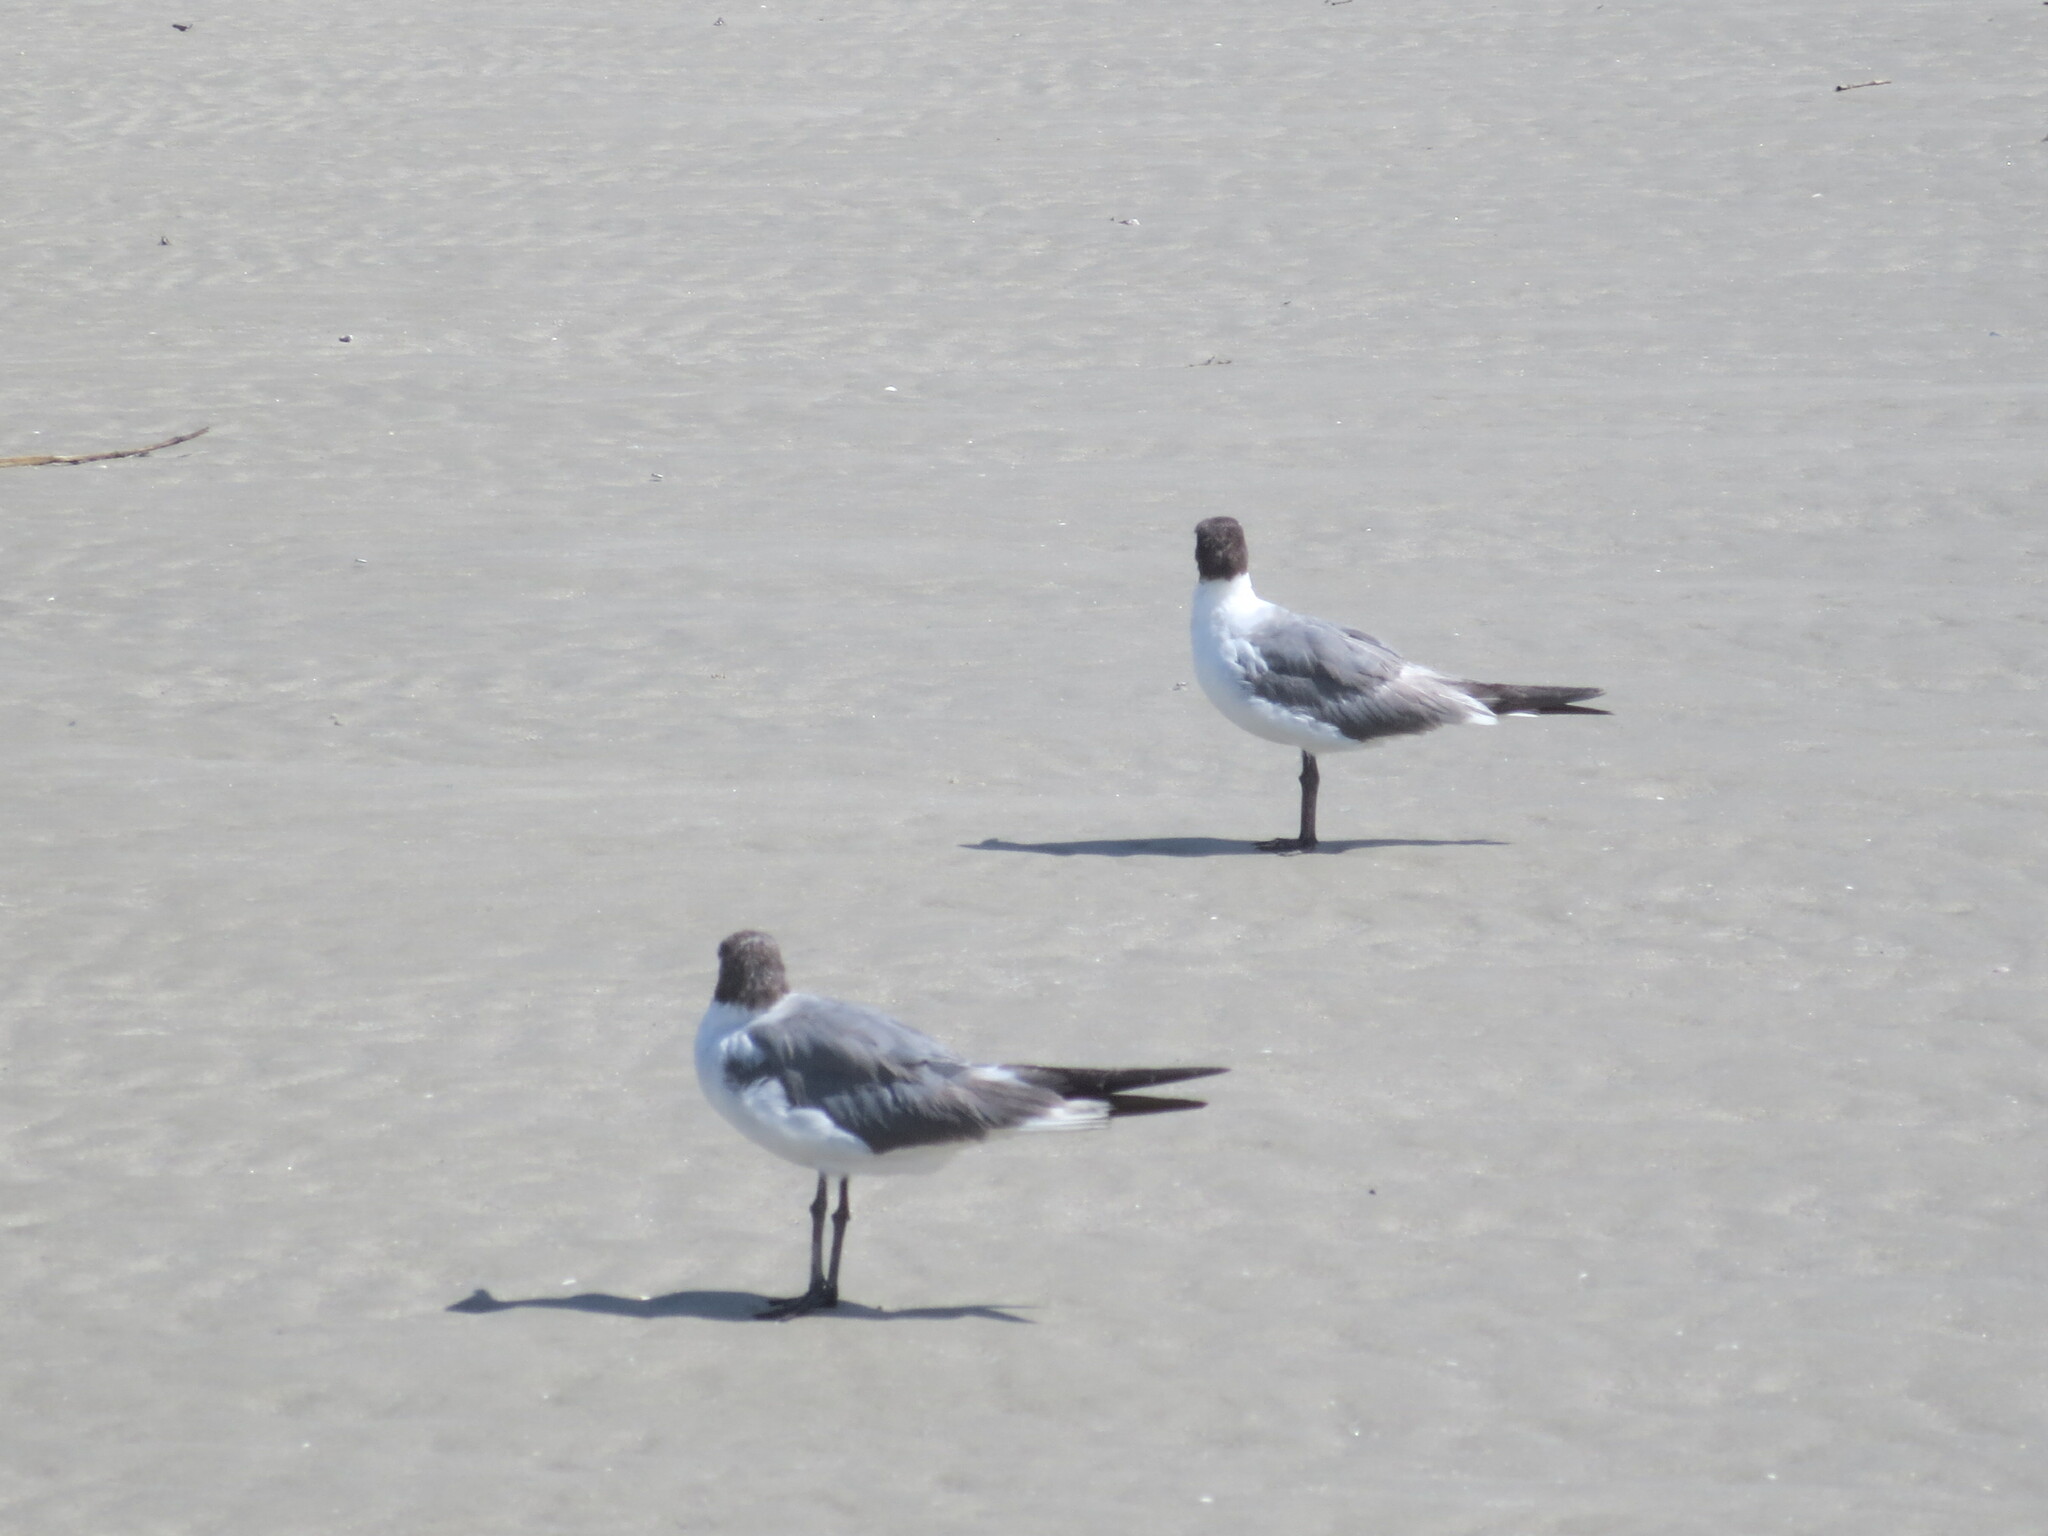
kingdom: Animalia
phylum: Chordata
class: Aves
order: Charadriiformes
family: Laridae
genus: Leucophaeus
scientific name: Leucophaeus atricilla
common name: Laughing gull
